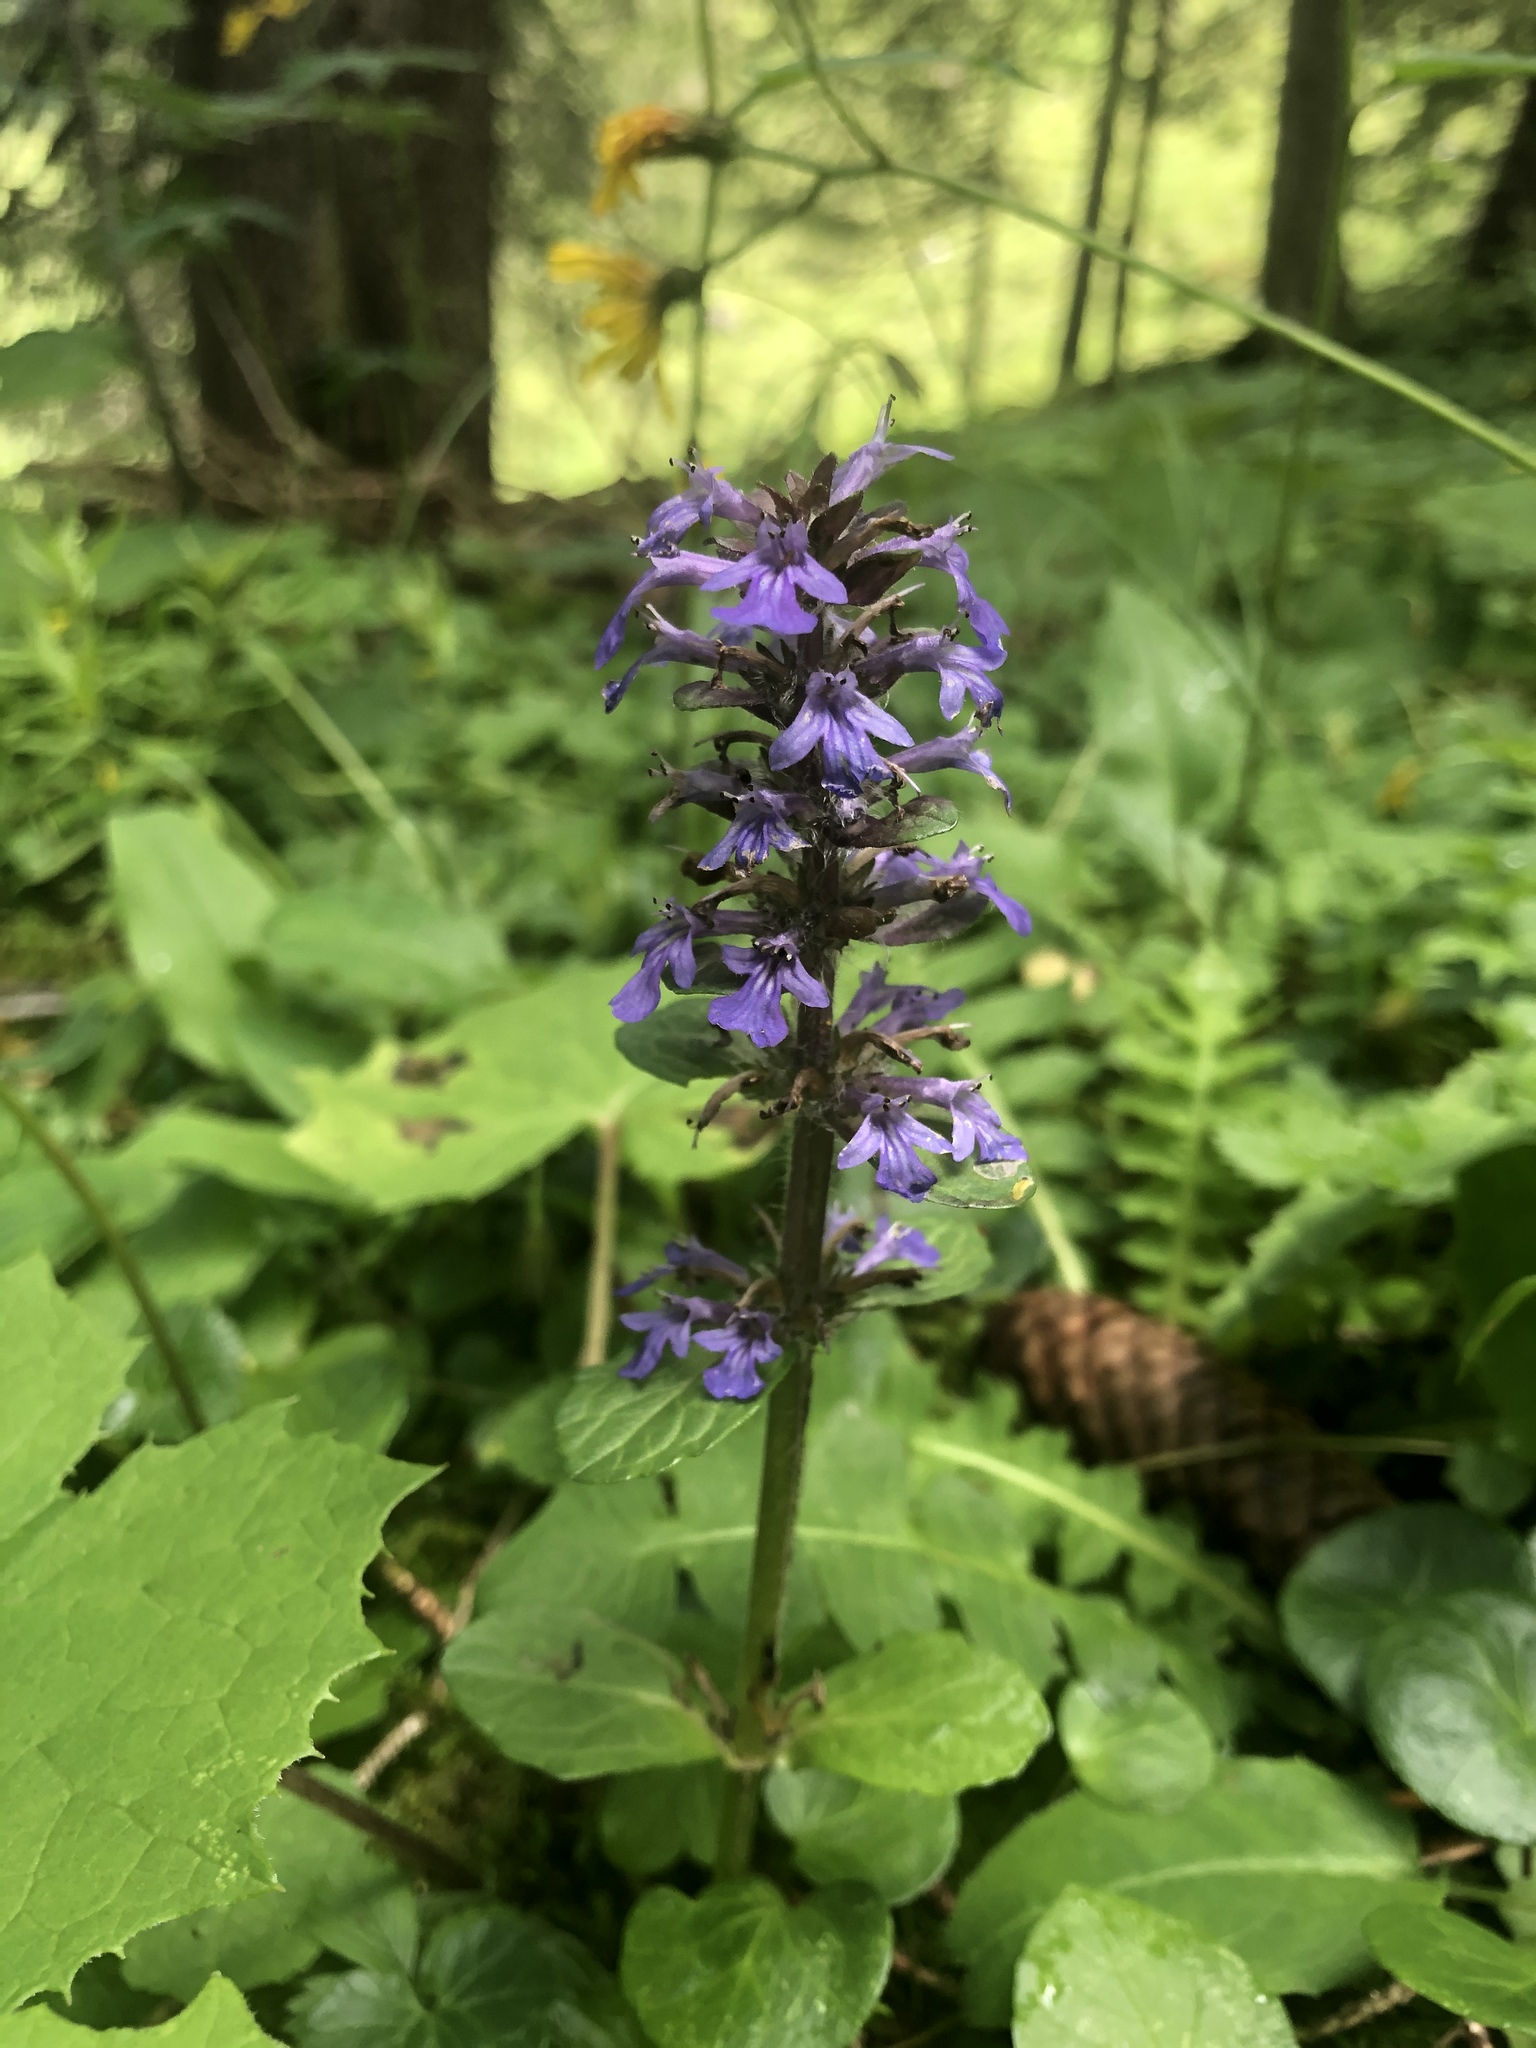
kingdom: Plantae
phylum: Tracheophyta
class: Magnoliopsida
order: Lamiales
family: Lamiaceae
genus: Ajuga
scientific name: Ajuga reptans
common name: Bugle
